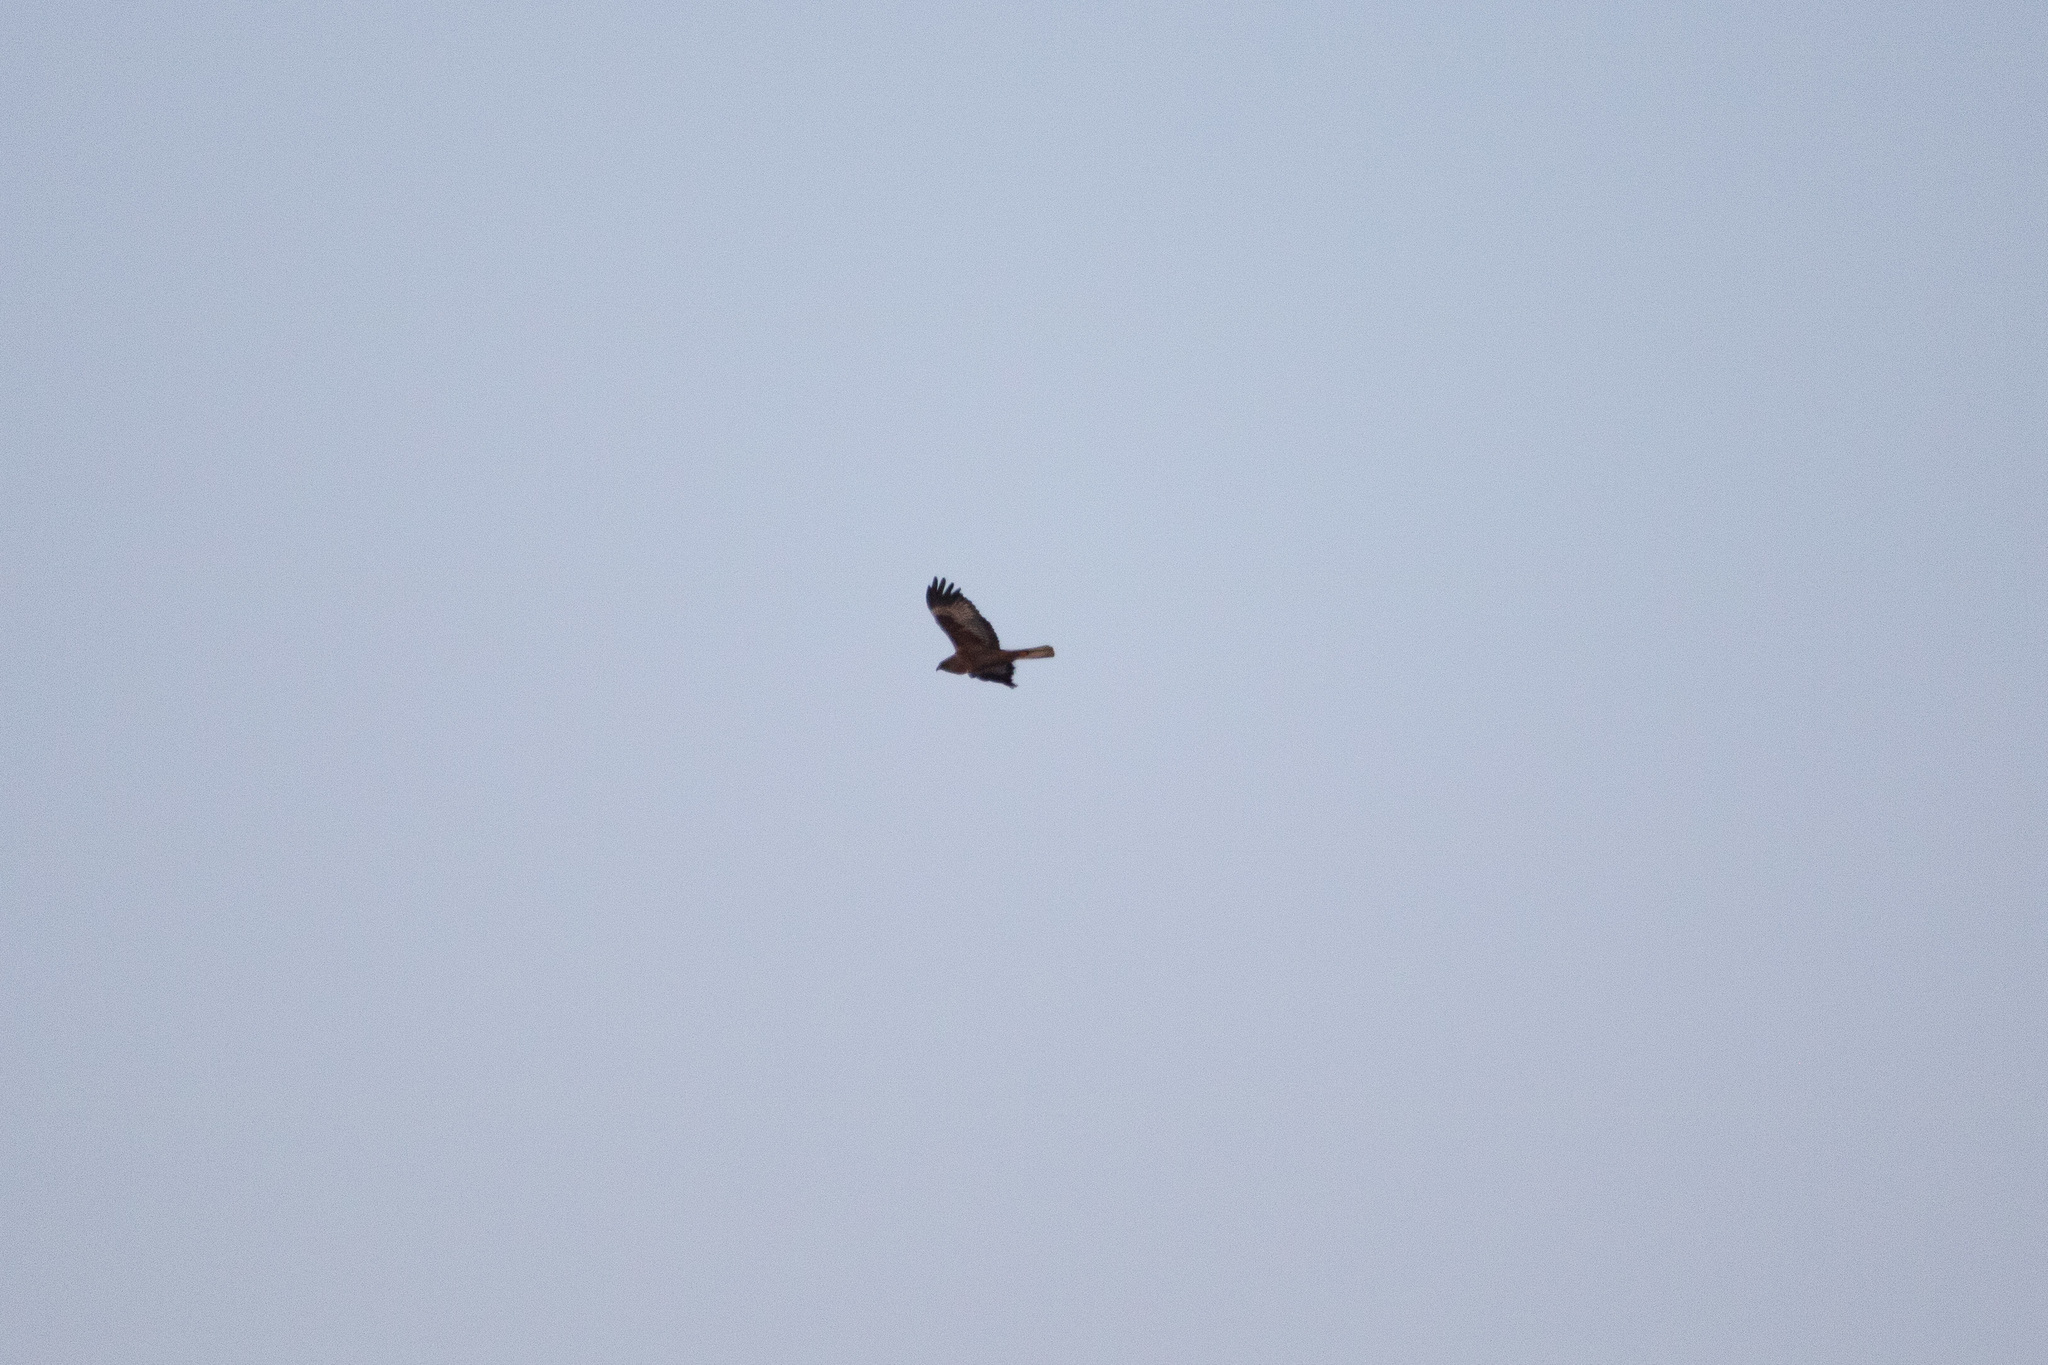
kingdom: Animalia
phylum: Chordata
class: Aves
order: Accipitriformes
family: Accipitridae
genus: Circus
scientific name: Circus aeruginosus
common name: Western marsh harrier
